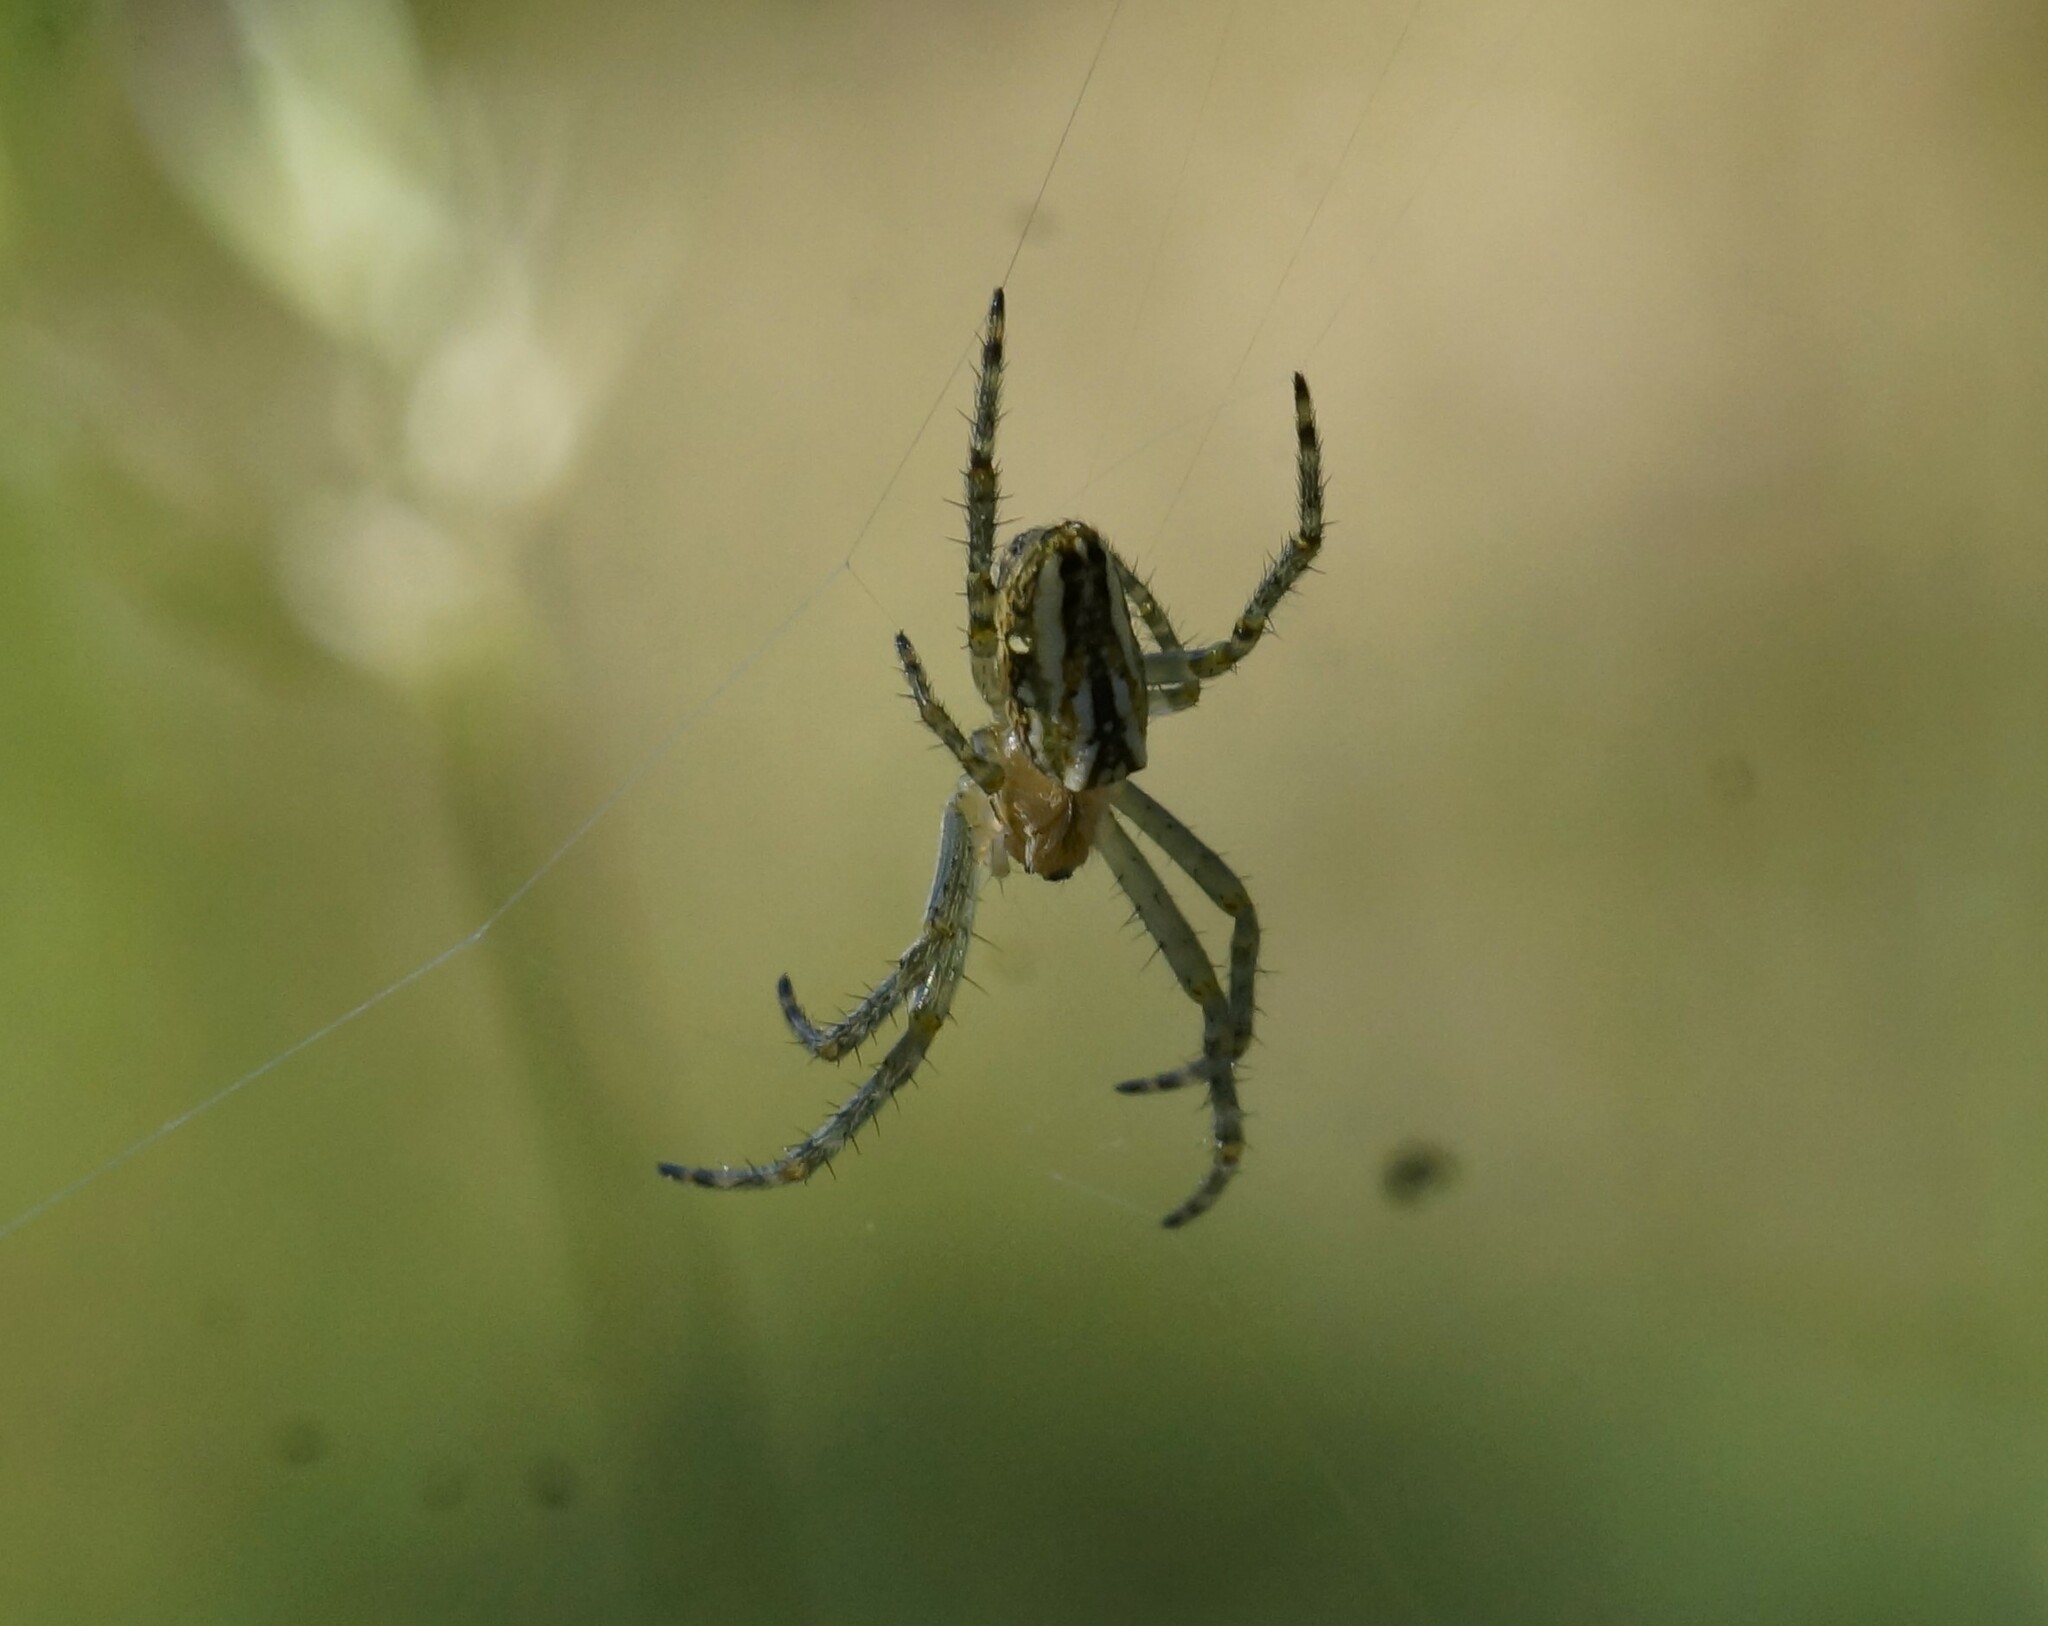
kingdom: Animalia
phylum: Arthropoda
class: Arachnida
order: Araneae
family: Araneidae
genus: Plebs
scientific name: Plebs bradleyi
